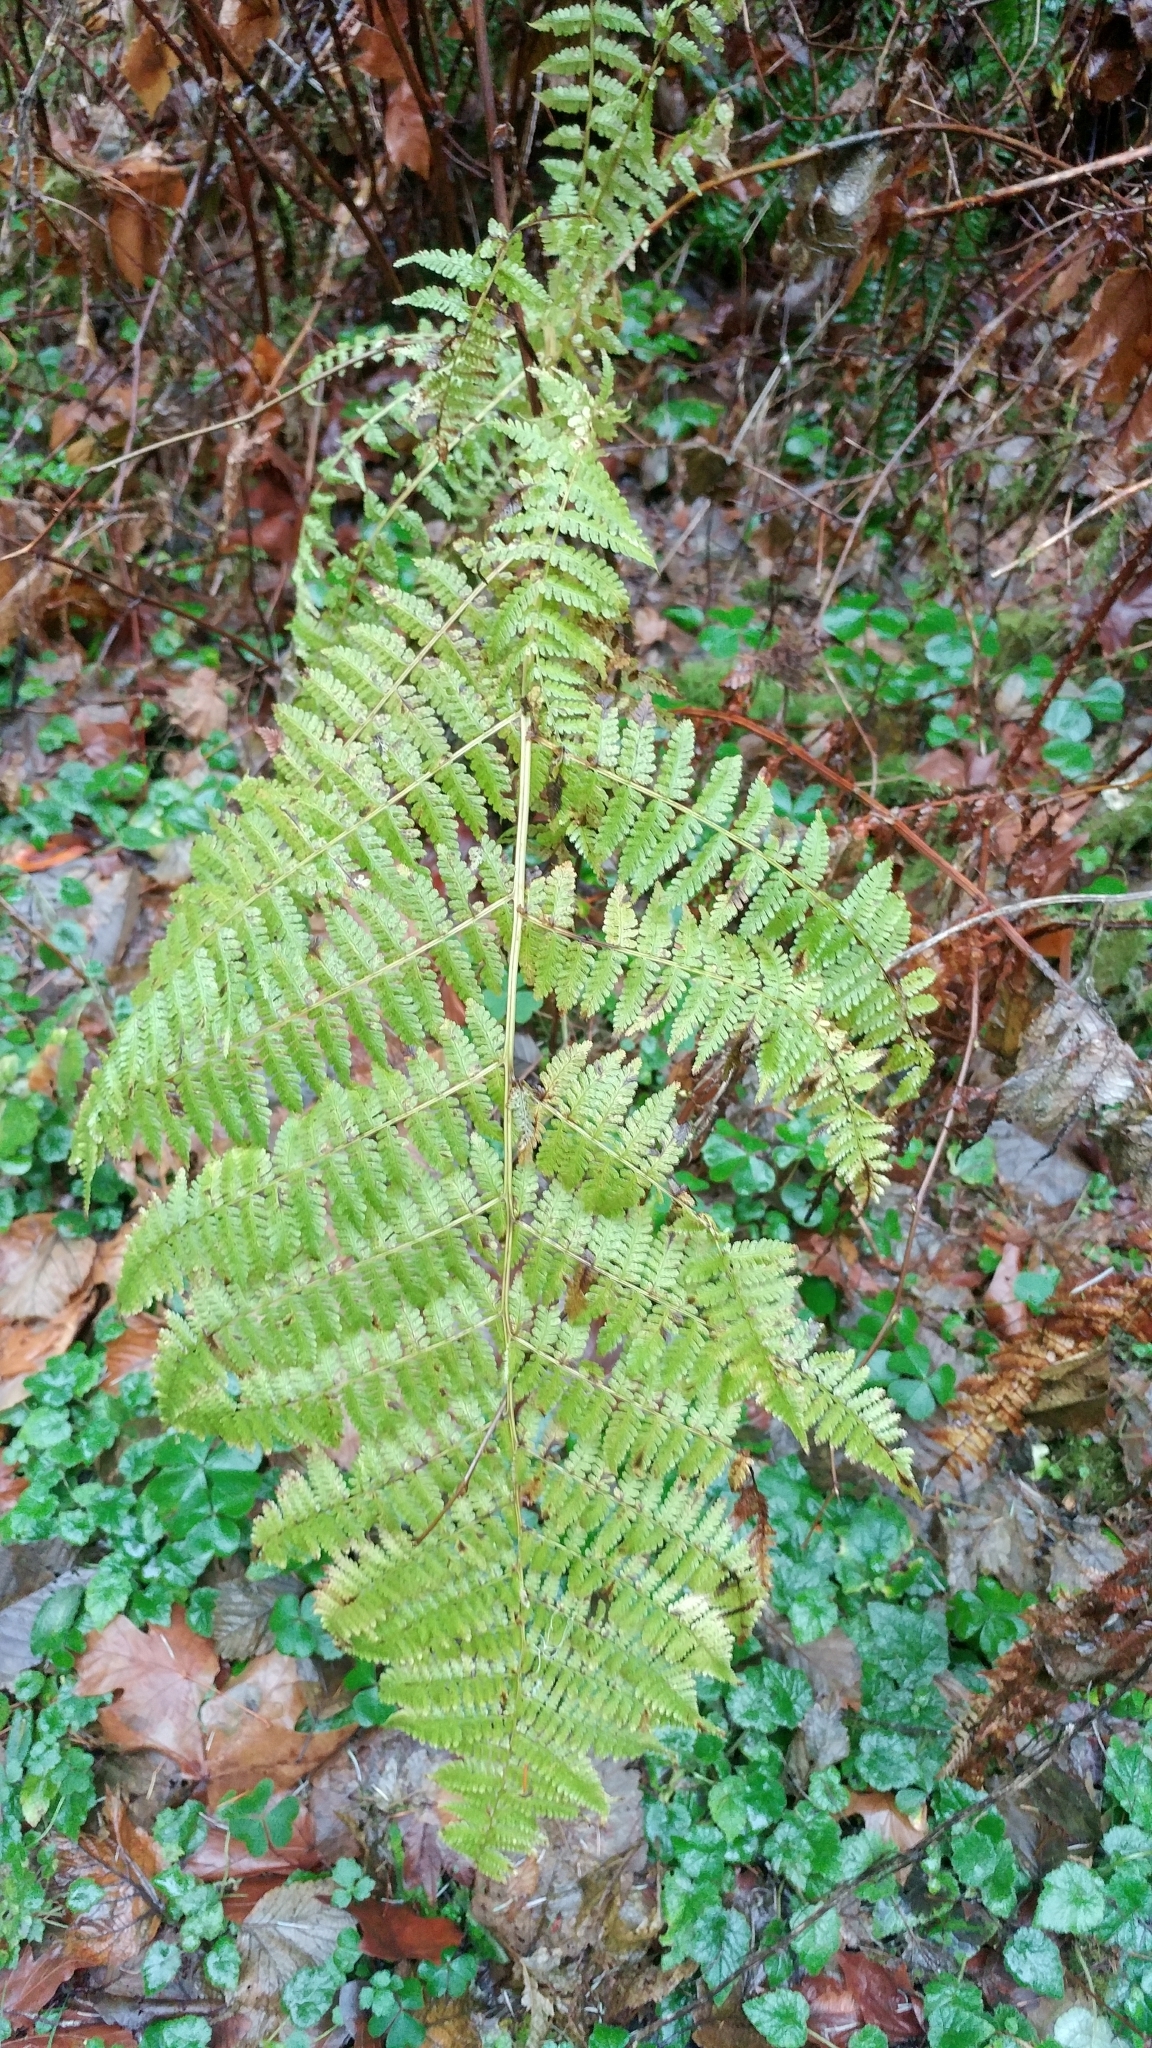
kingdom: Plantae
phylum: Tracheophyta
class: Polypodiopsida
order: Polypodiales
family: Athyriaceae
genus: Athyrium
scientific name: Athyrium filix-femina
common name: Lady fern
